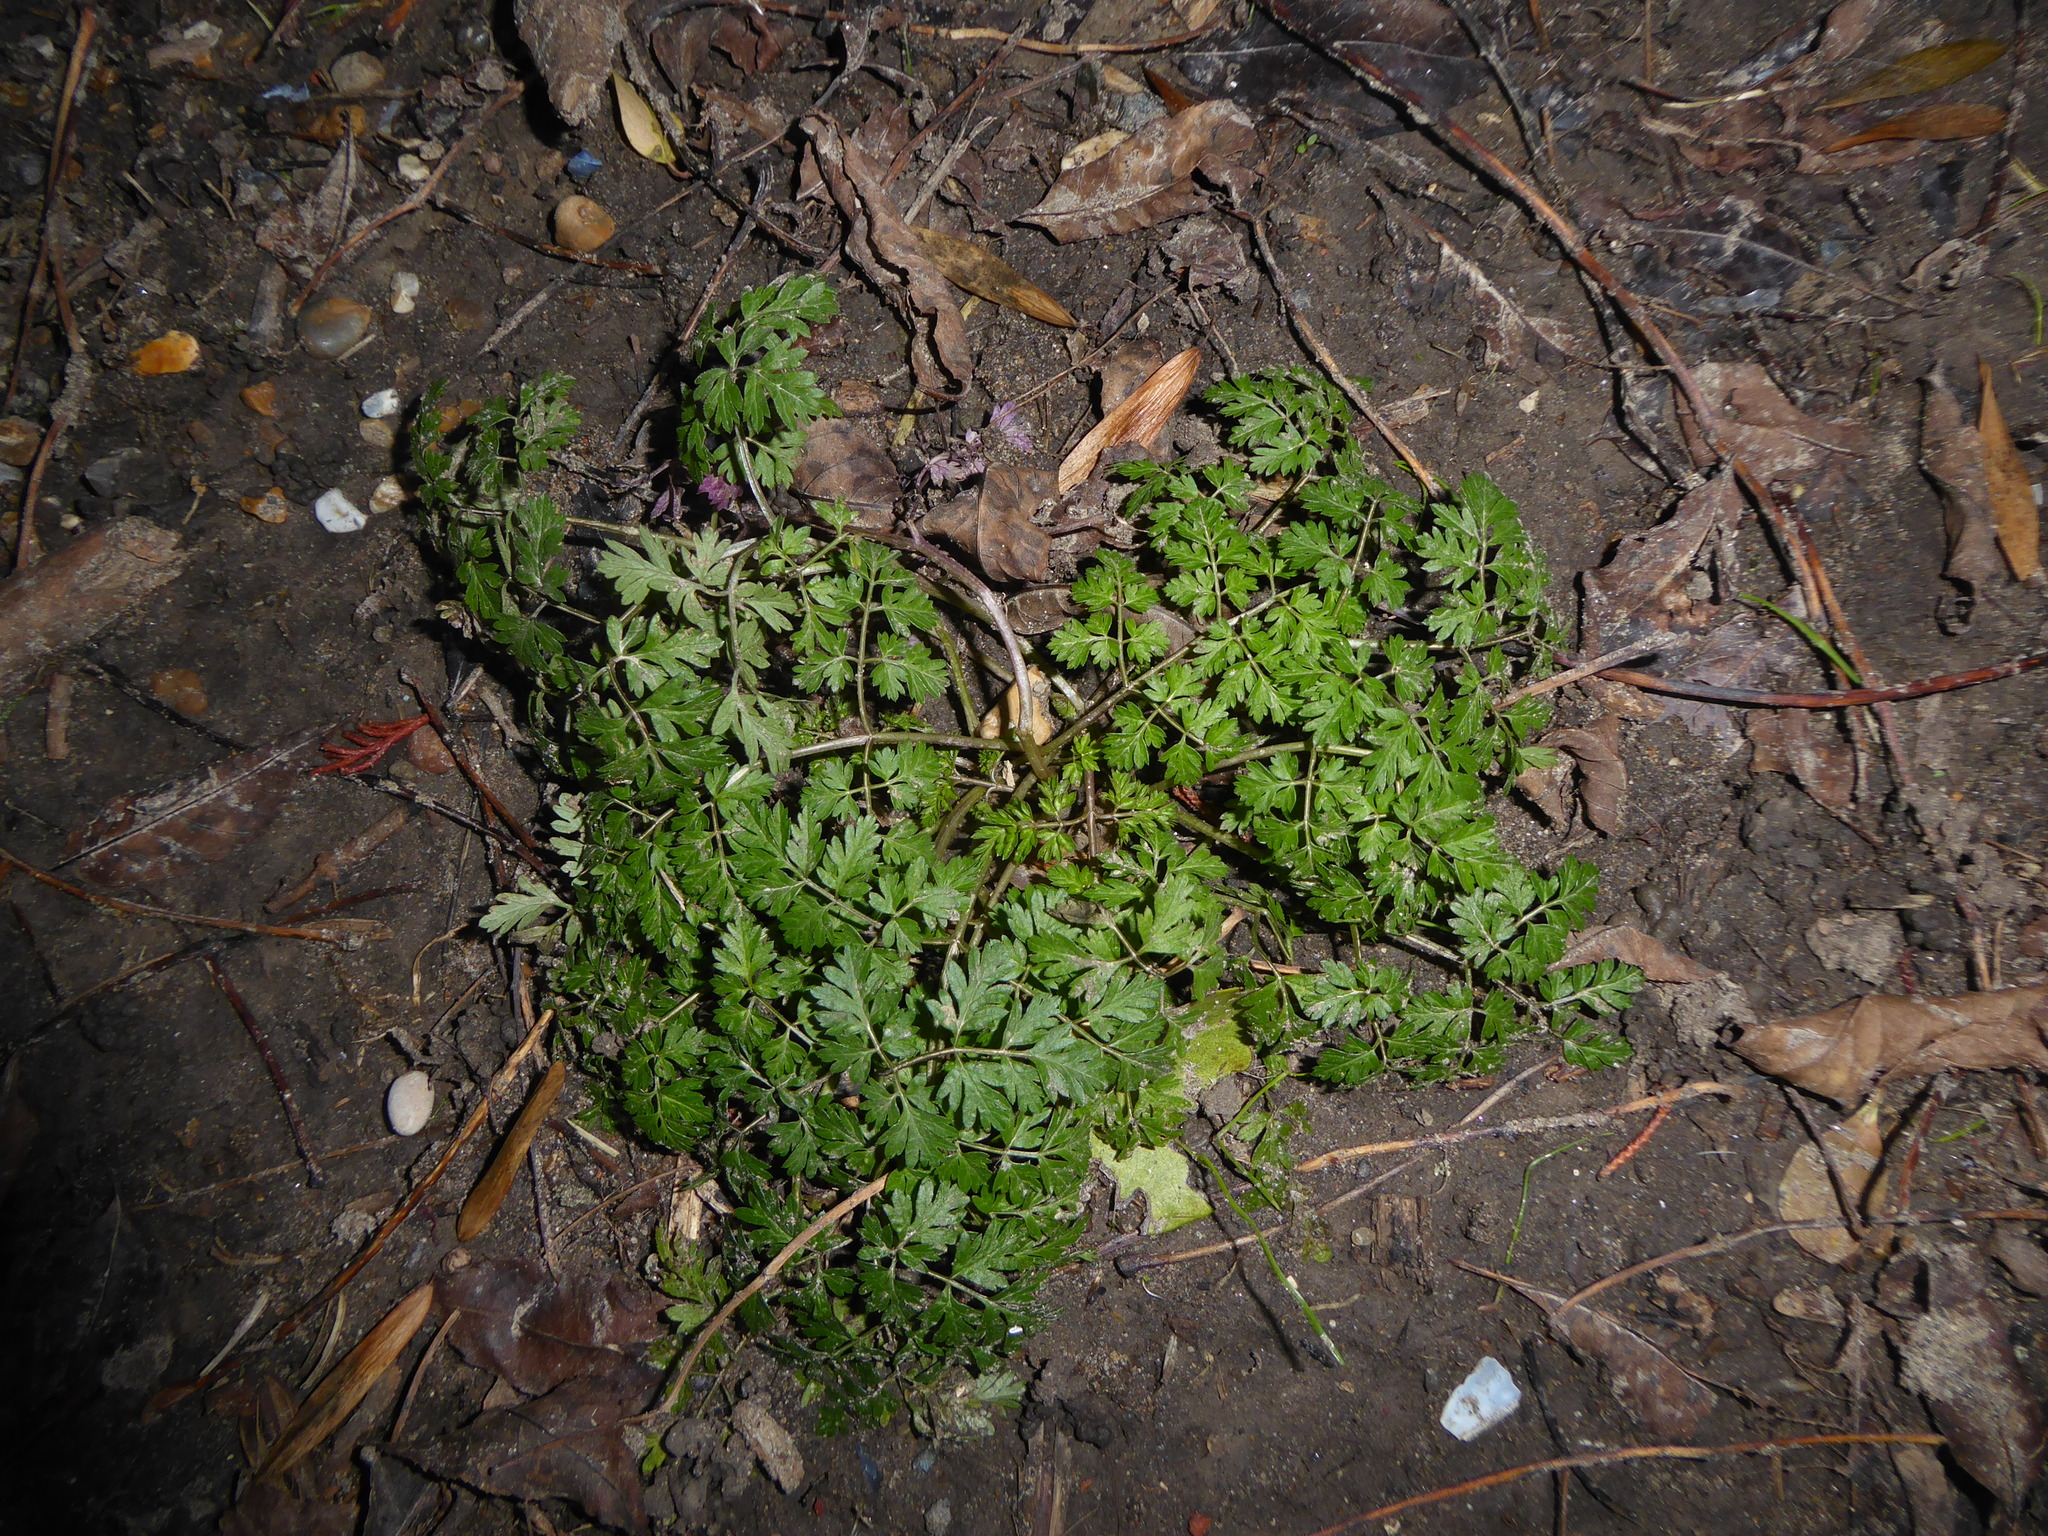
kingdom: Plantae
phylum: Tracheophyta
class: Magnoliopsida
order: Apiales
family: Apiaceae
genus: Anthriscus
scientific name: Anthriscus sylvestris
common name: Cow parsley
